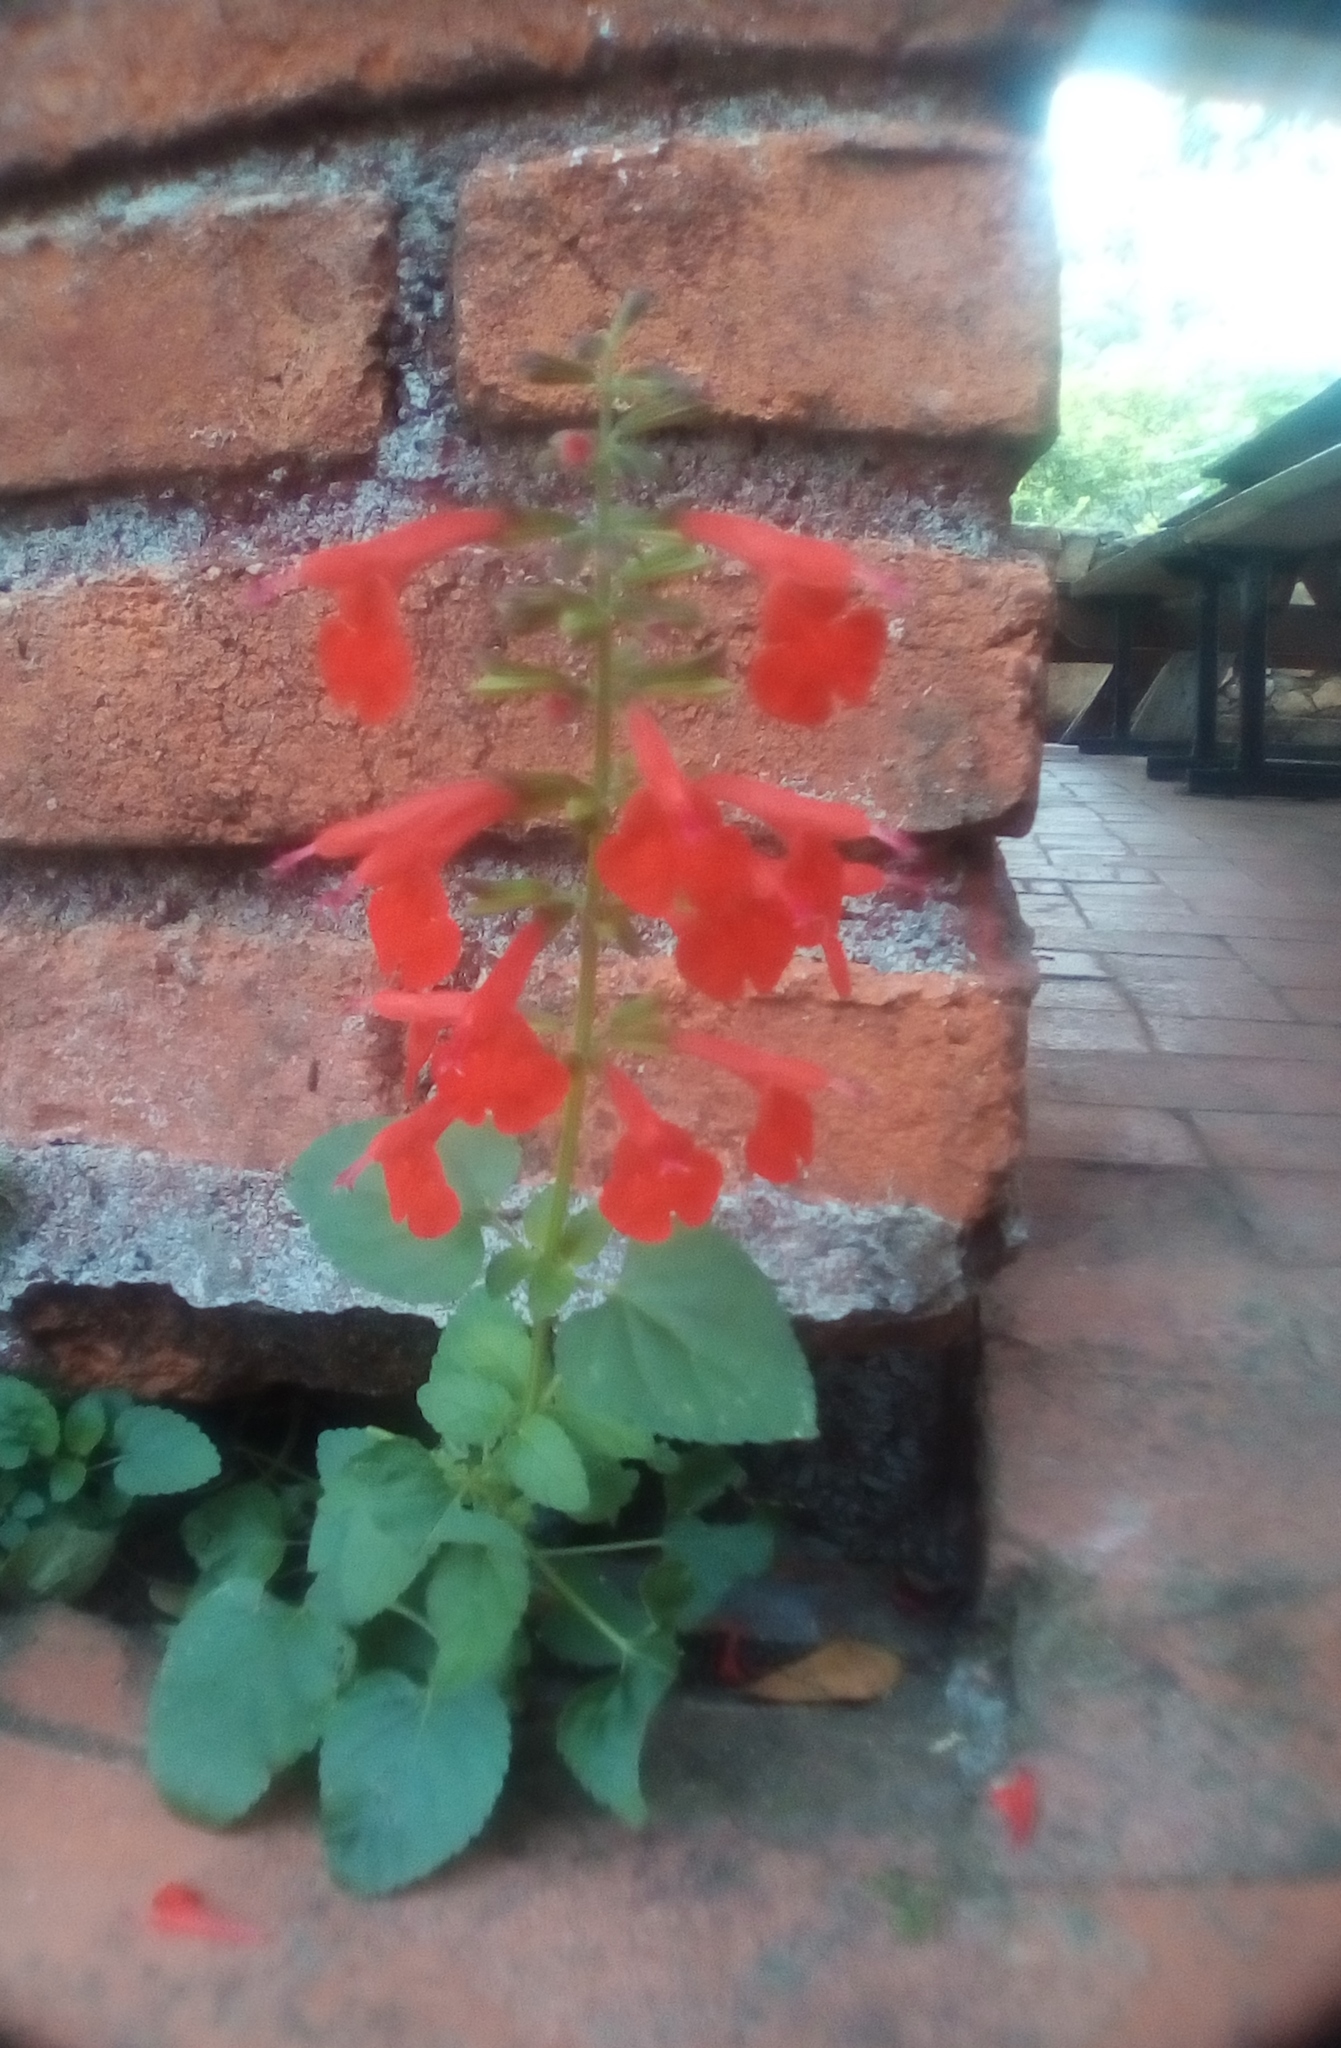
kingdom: Plantae
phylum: Tracheophyta
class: Magnoliopsida
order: Lamiales
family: Lamiaceae
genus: Salvia
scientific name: Salvia coccinea
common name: Blood sage
